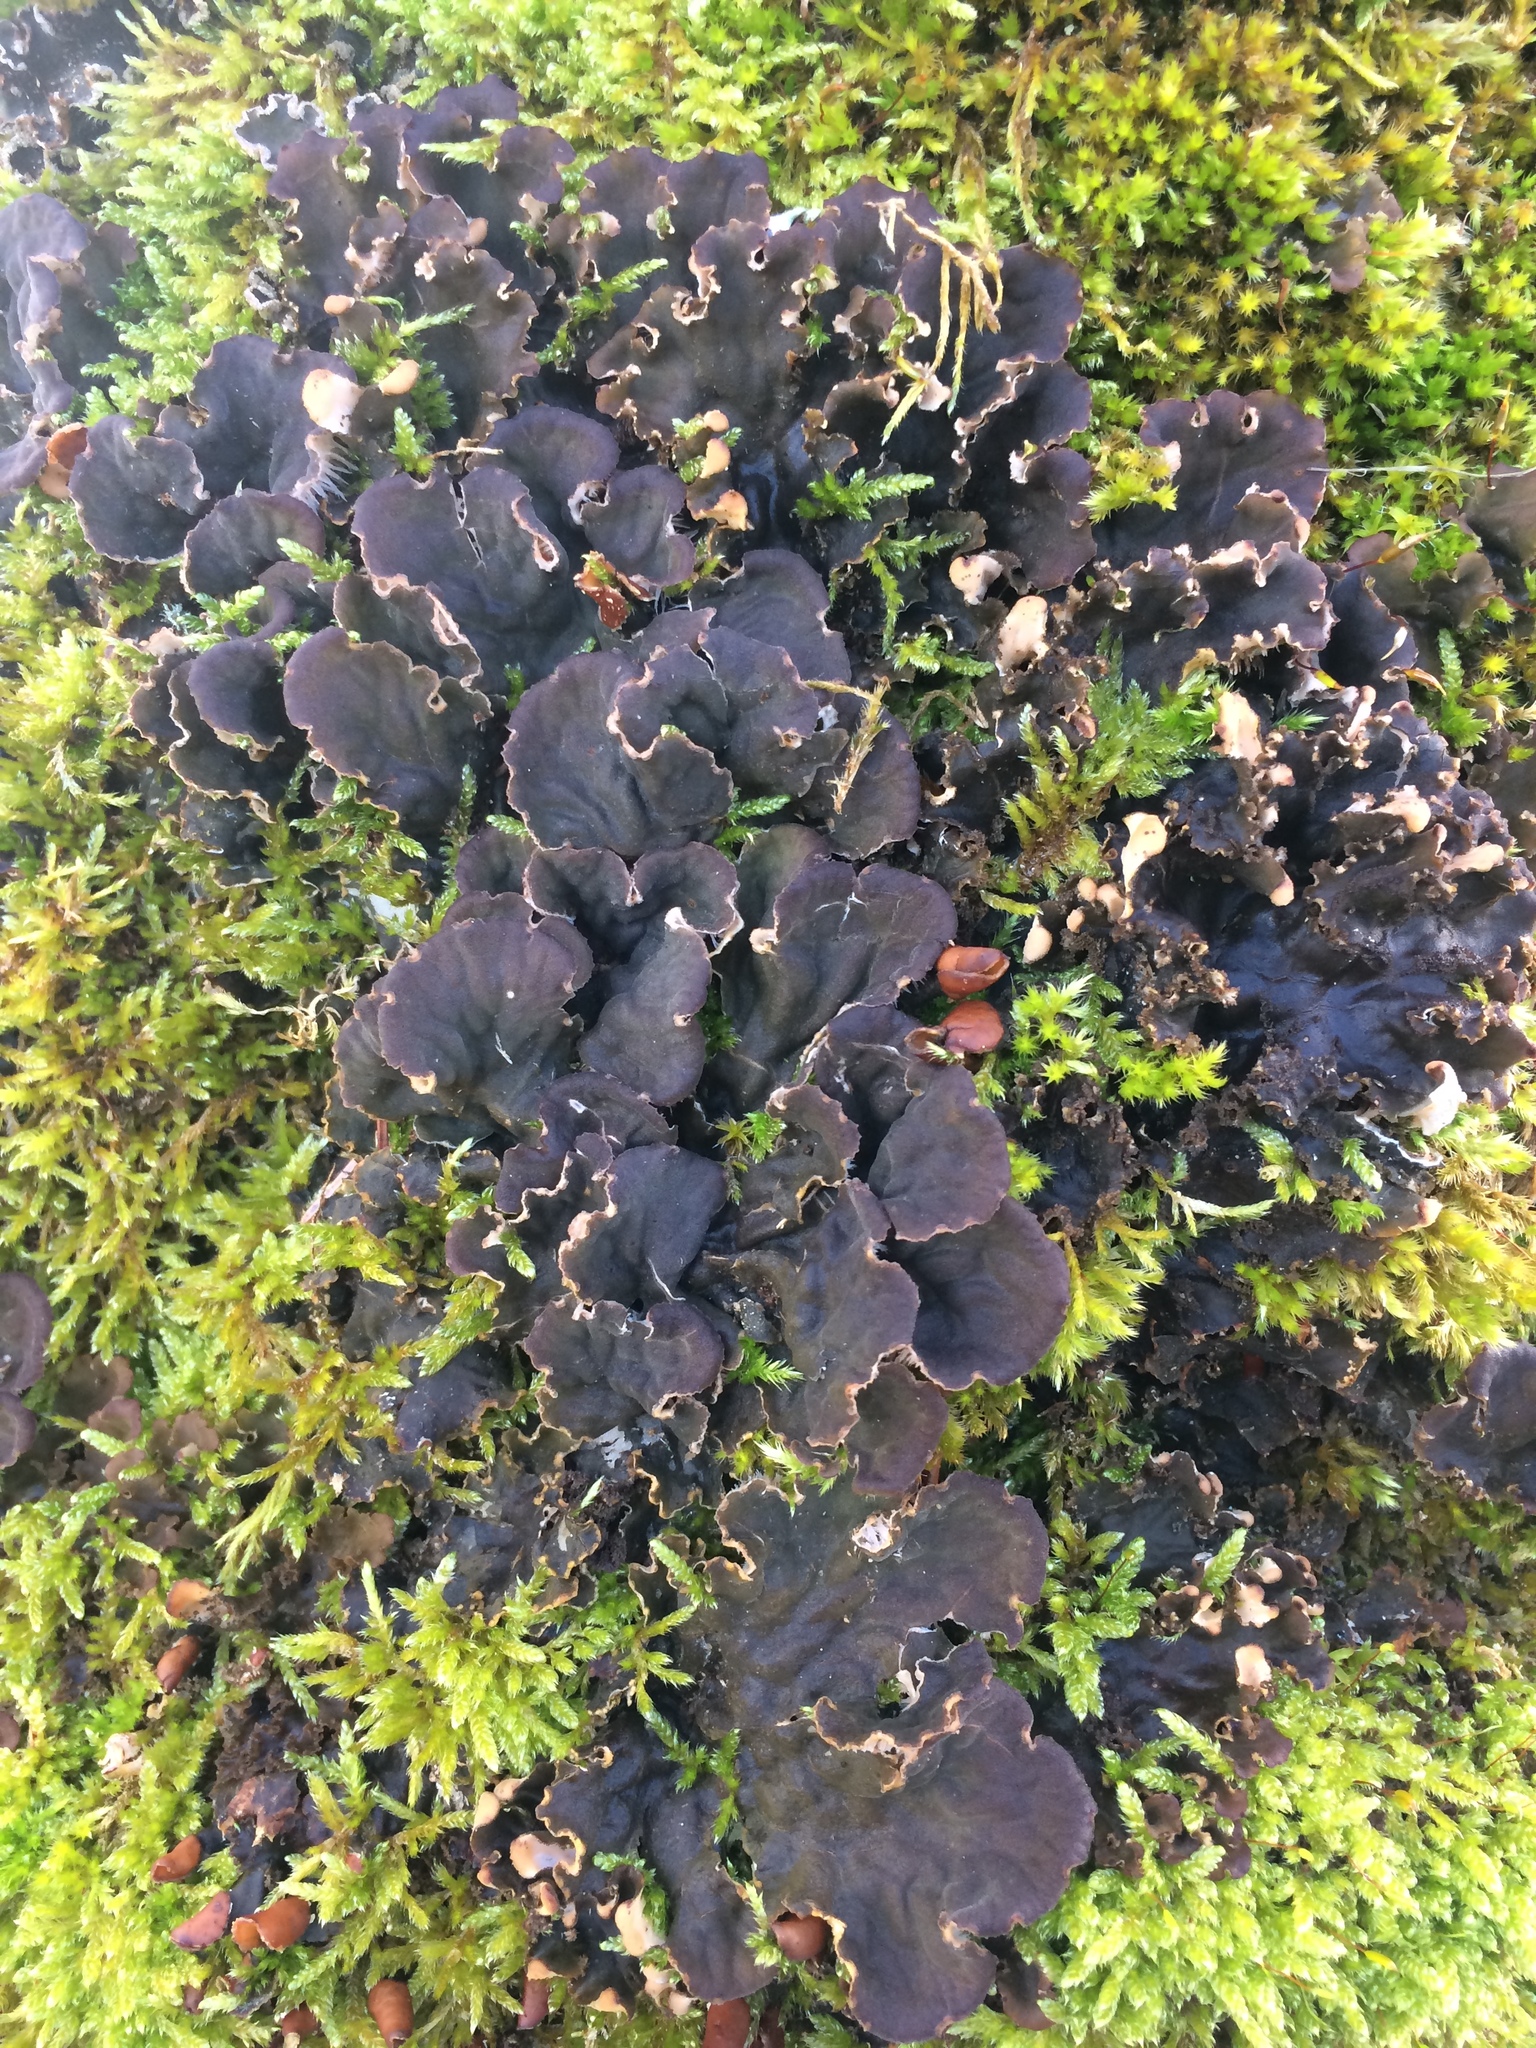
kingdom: Fungi
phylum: Ascomycota
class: Lecanoromycetes
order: Peltigerales
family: Peltigeraceae
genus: Peltigera
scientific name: Peltigera praetextata
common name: Scaly dog-lichen
